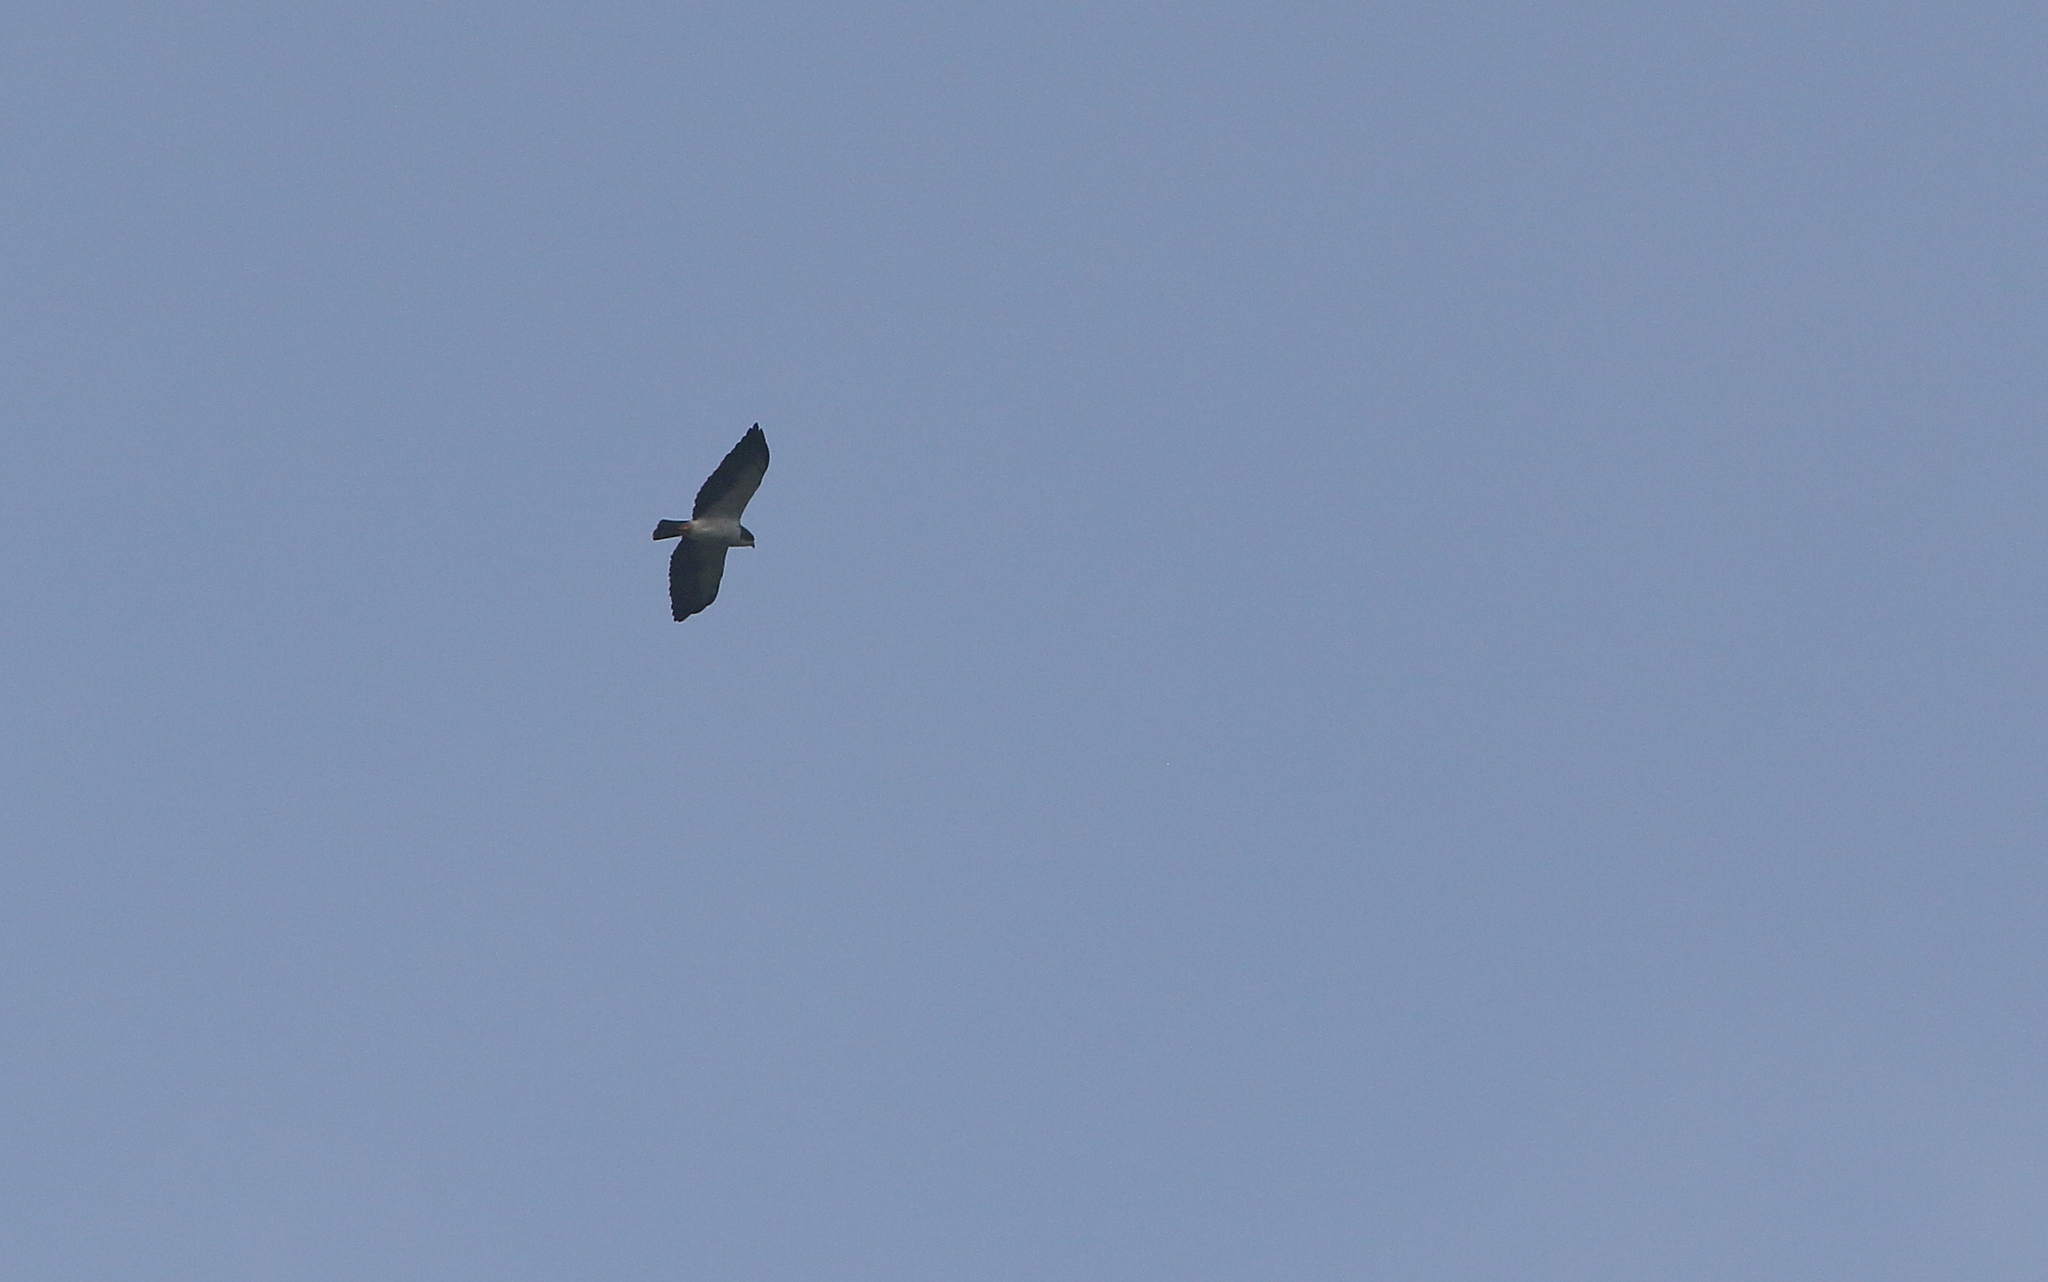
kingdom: Animalia
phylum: Chordata
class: Aves
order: Accipitriformes
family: Accipitridae
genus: Buteo
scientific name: Buteo brachyurus
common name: Short-tailed hawk
